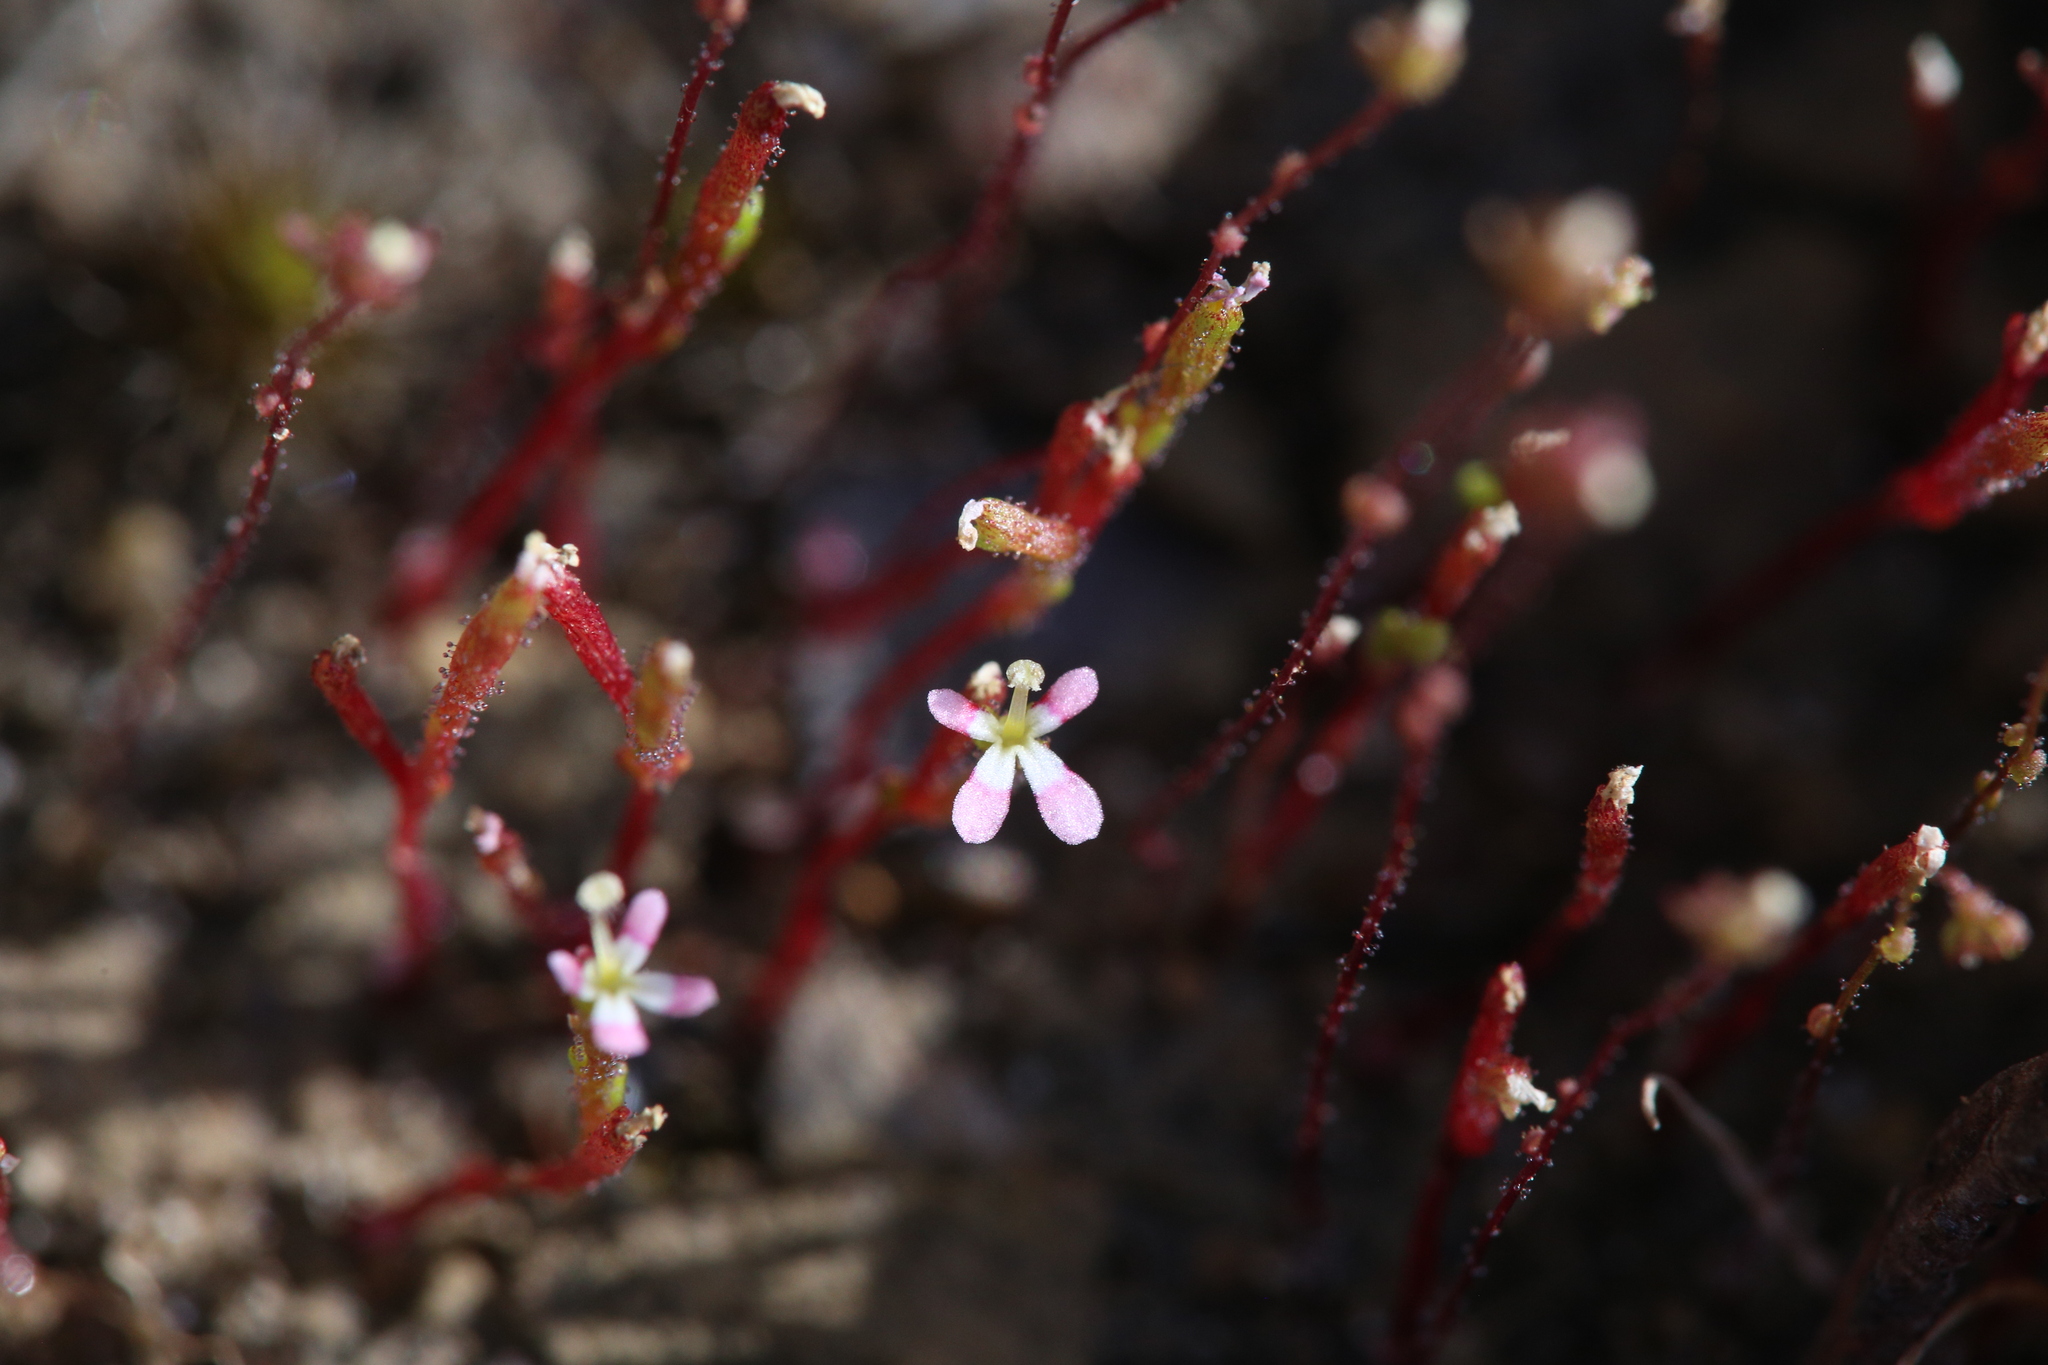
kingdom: Plantae
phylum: Tracheophyta
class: Magnoliopsida
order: Asterales
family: Stylidiaceae
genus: Stylidium
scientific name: Stylidium inundatum
